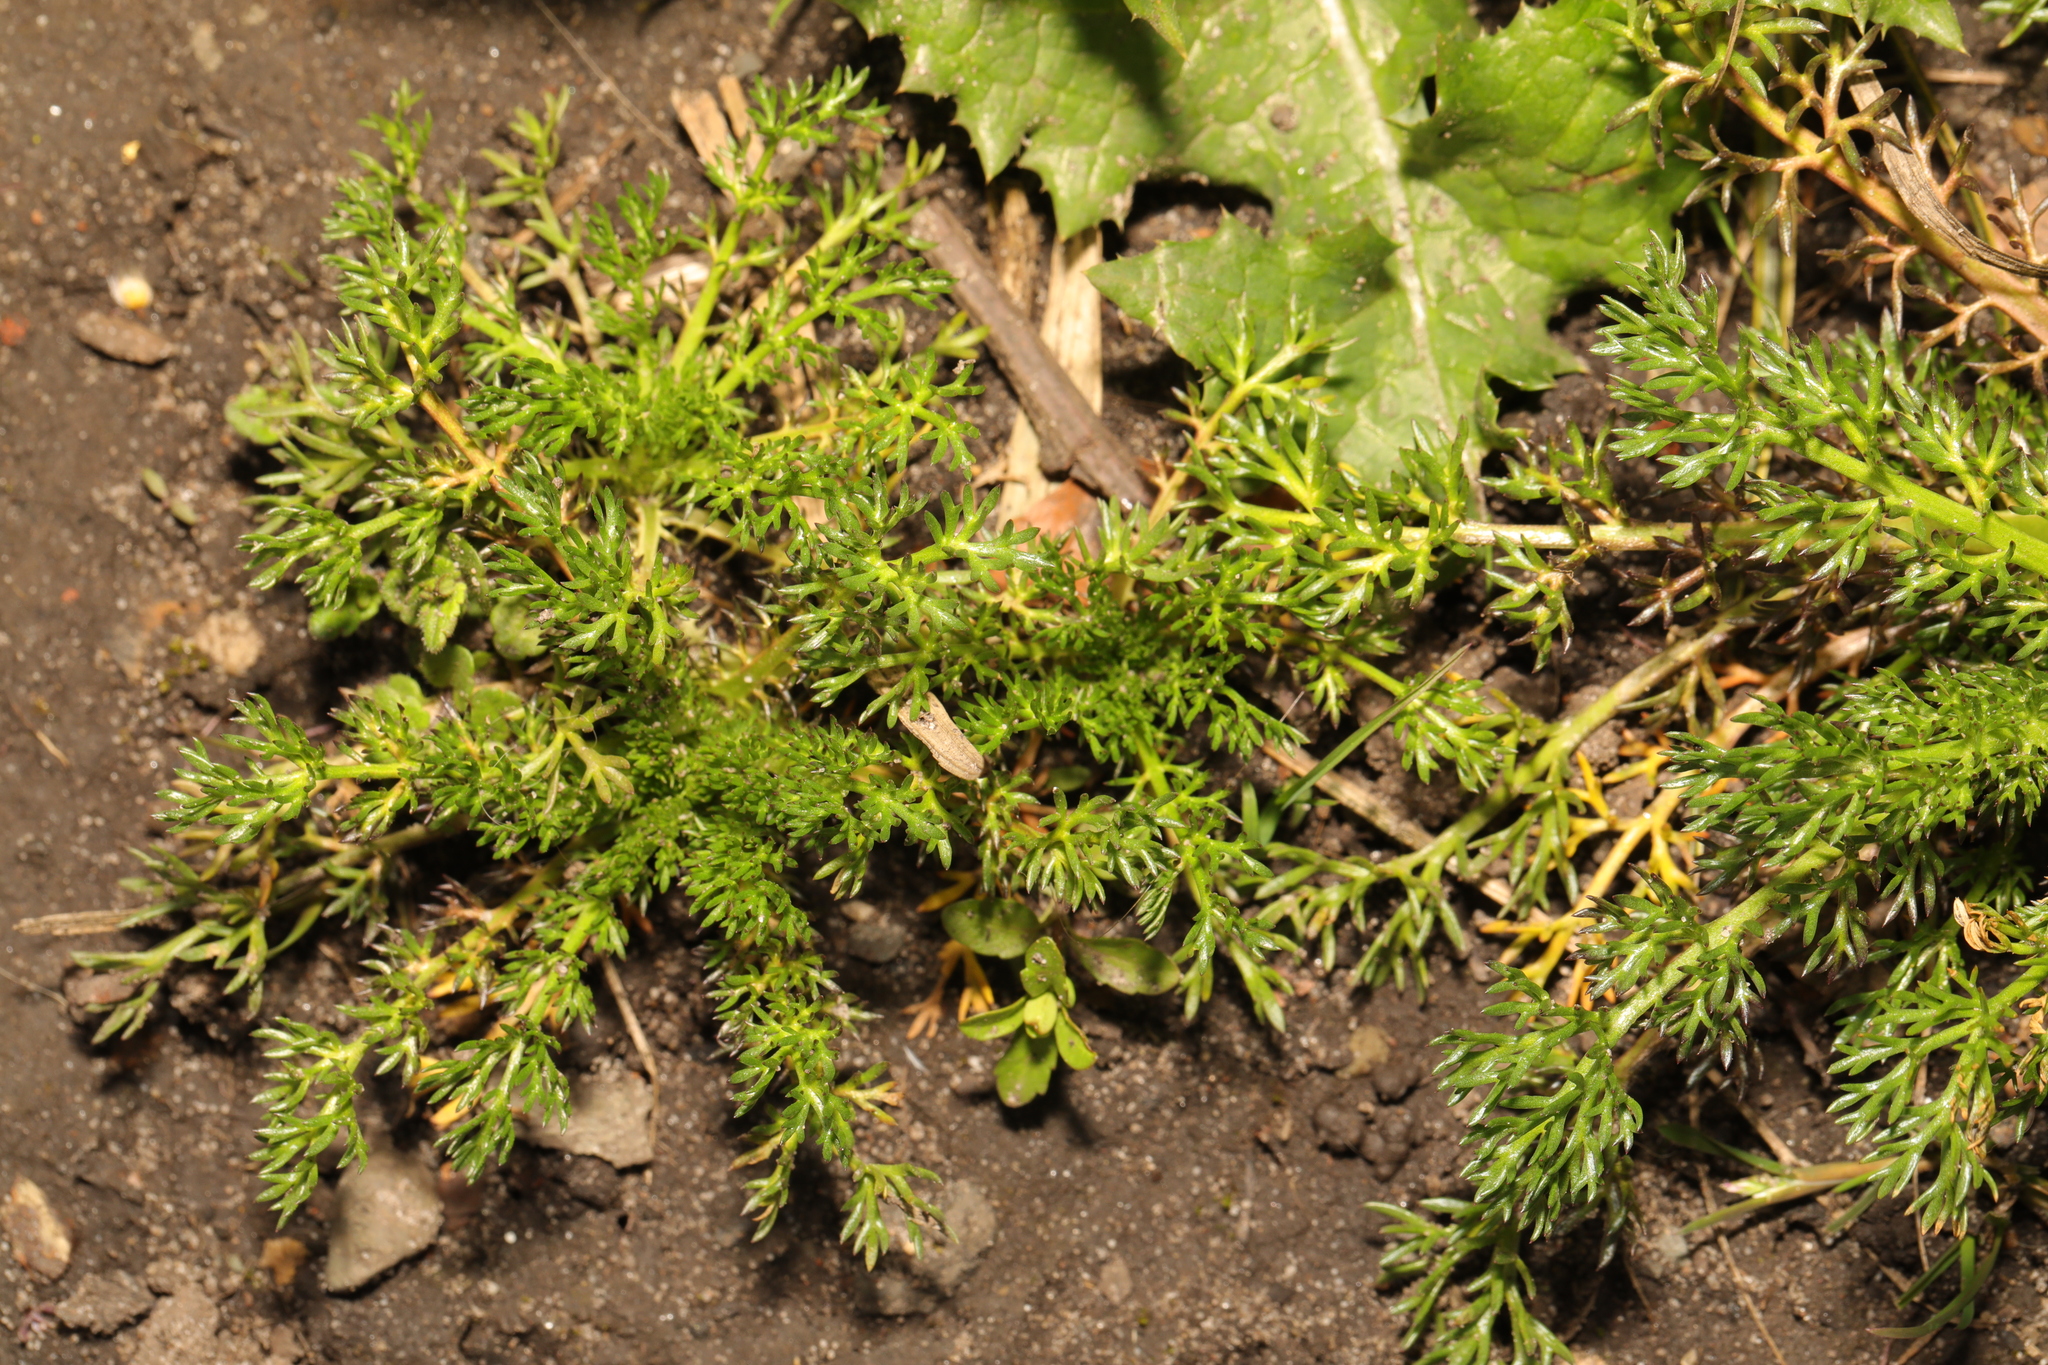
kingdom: Plantae
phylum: Tracheophyta
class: Magnoliopsida
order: Asterales
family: Asteraceae
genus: Matricaria
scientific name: Matricaria discoidea
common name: Disc mayweed
